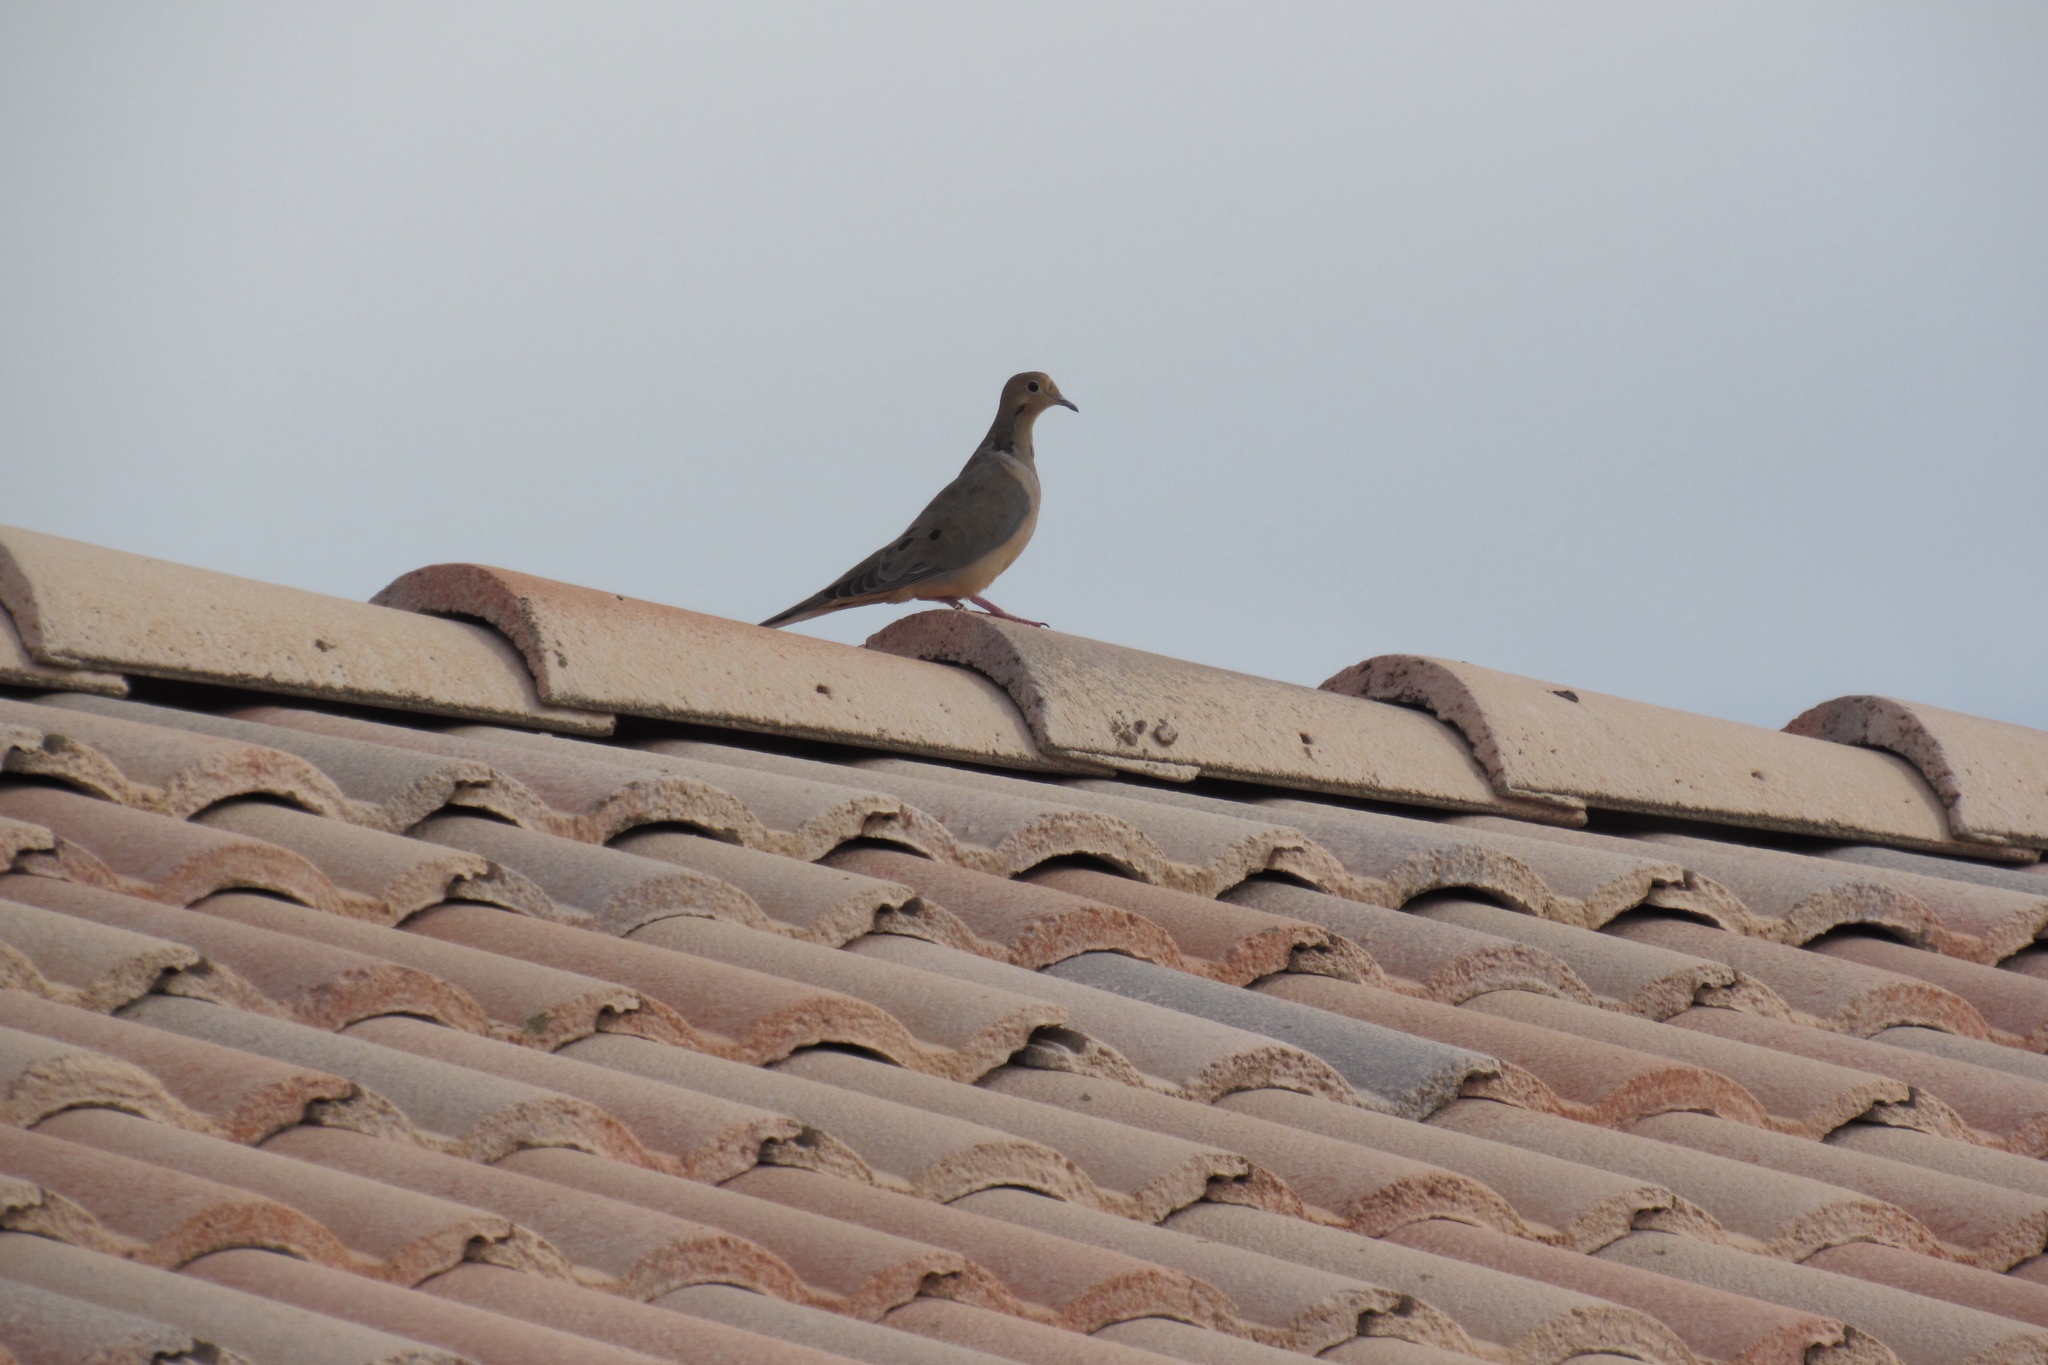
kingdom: Animalia
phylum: Chordata
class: Aves
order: Columbiformes
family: Columbidae
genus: Zenaida
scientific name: Zenaida macroura
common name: Mourning dove
